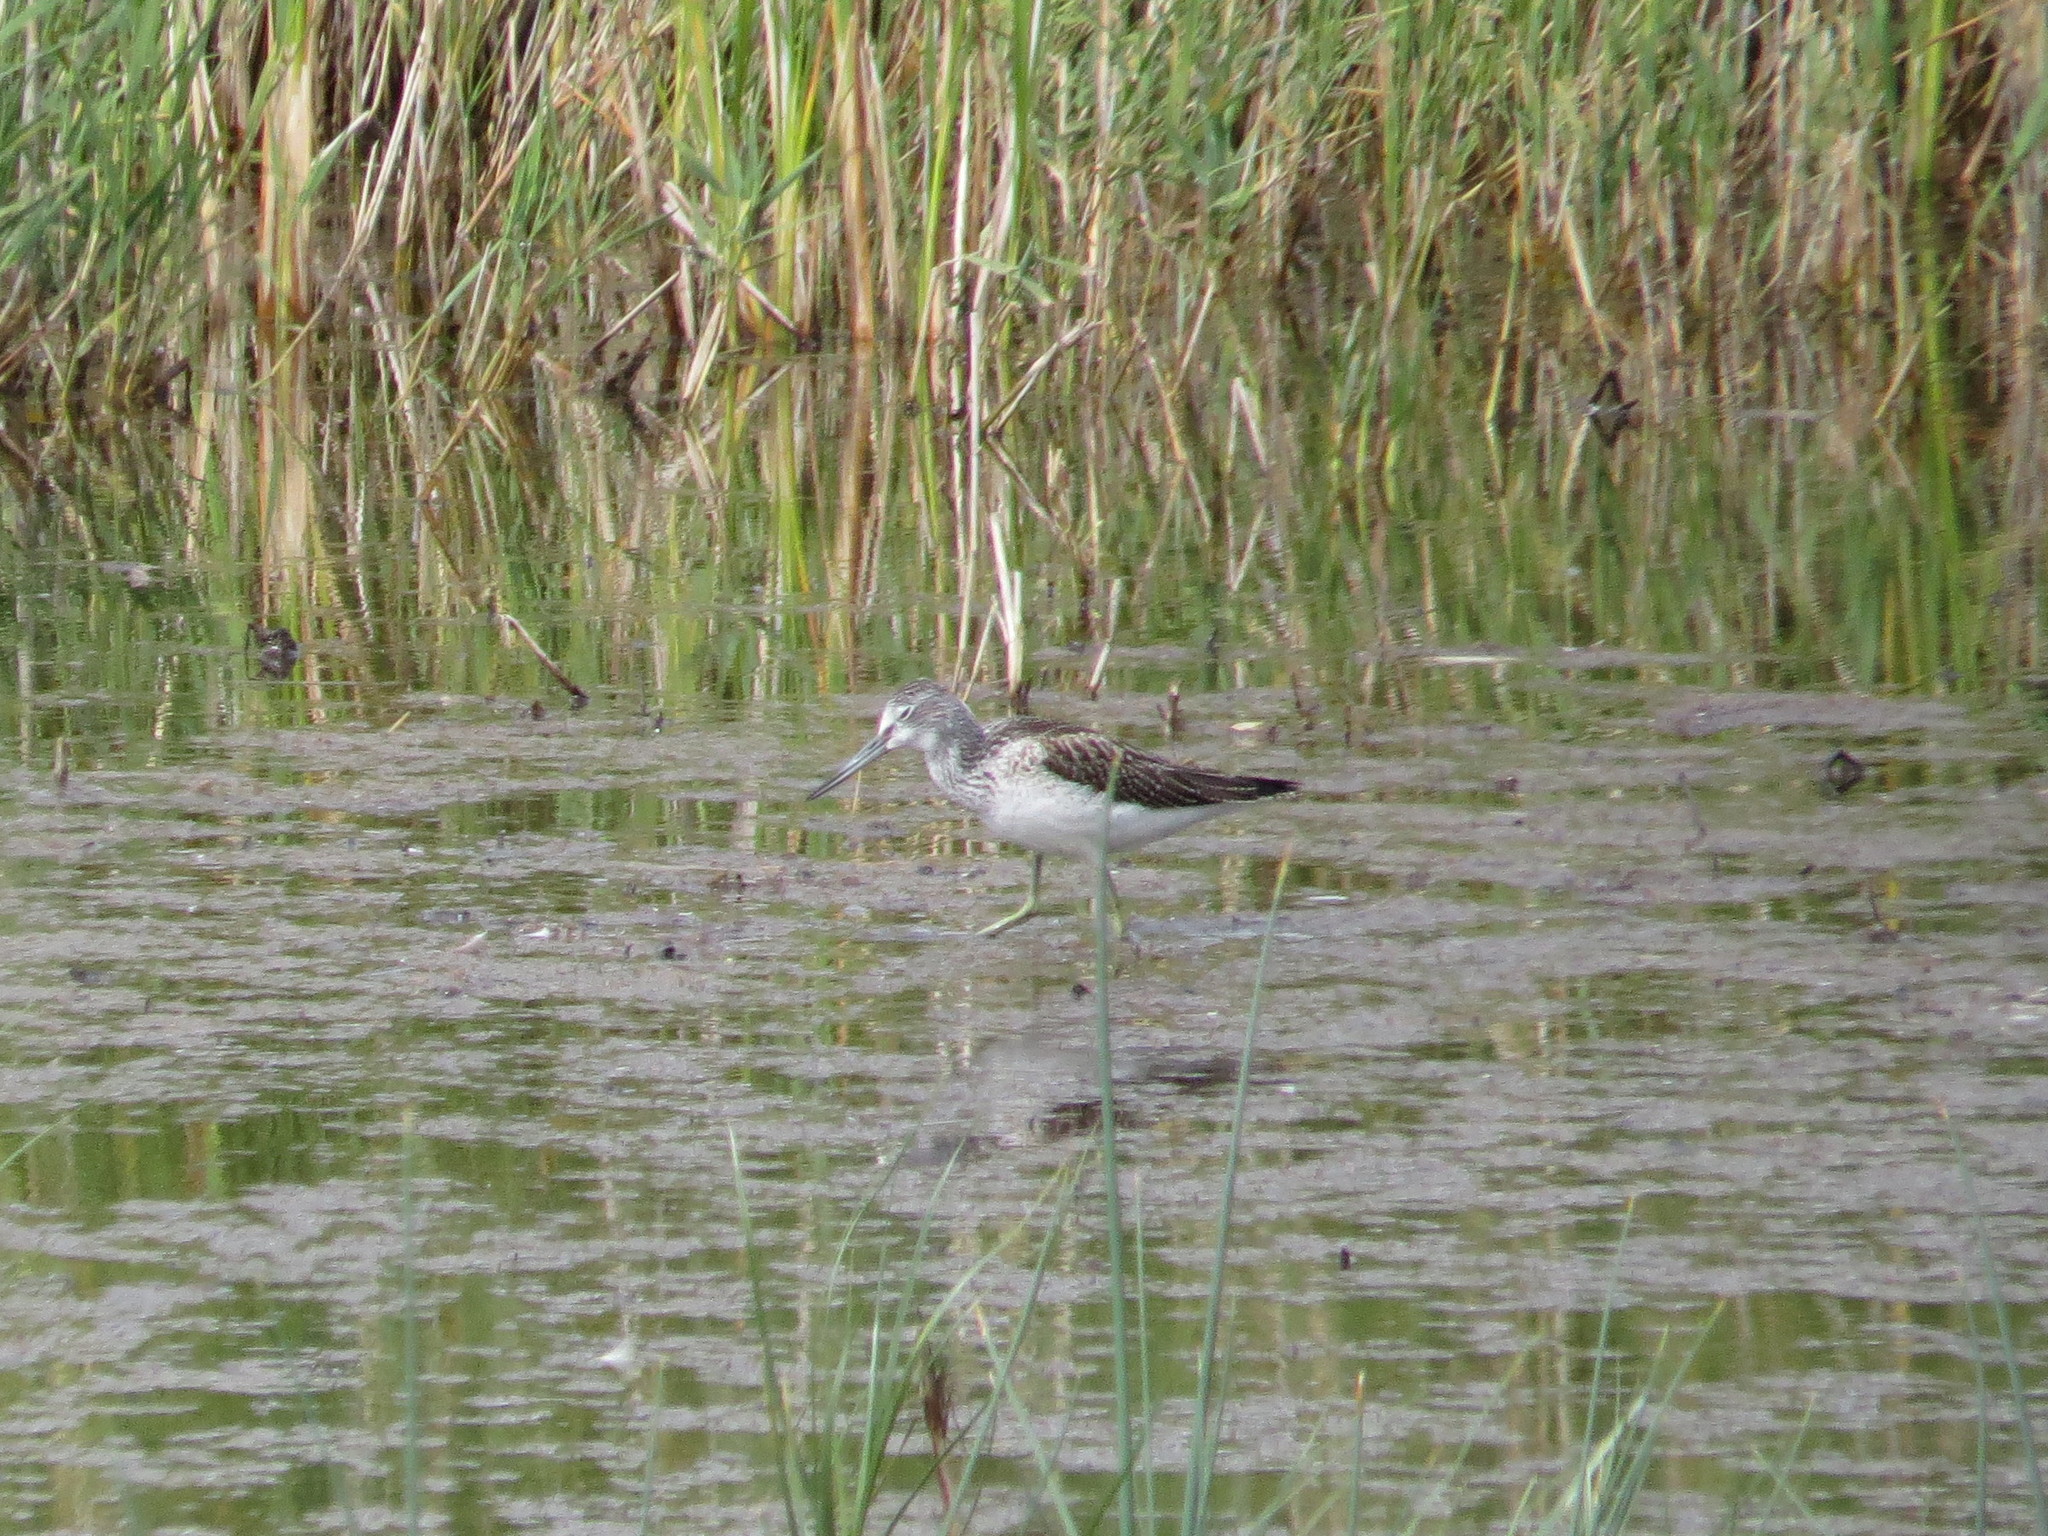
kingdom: Animalia
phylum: Chordata
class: Aves
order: Charadriiformes
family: Scolopacidae
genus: Tringa
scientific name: Tringa nebularia
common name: Common greenshank
